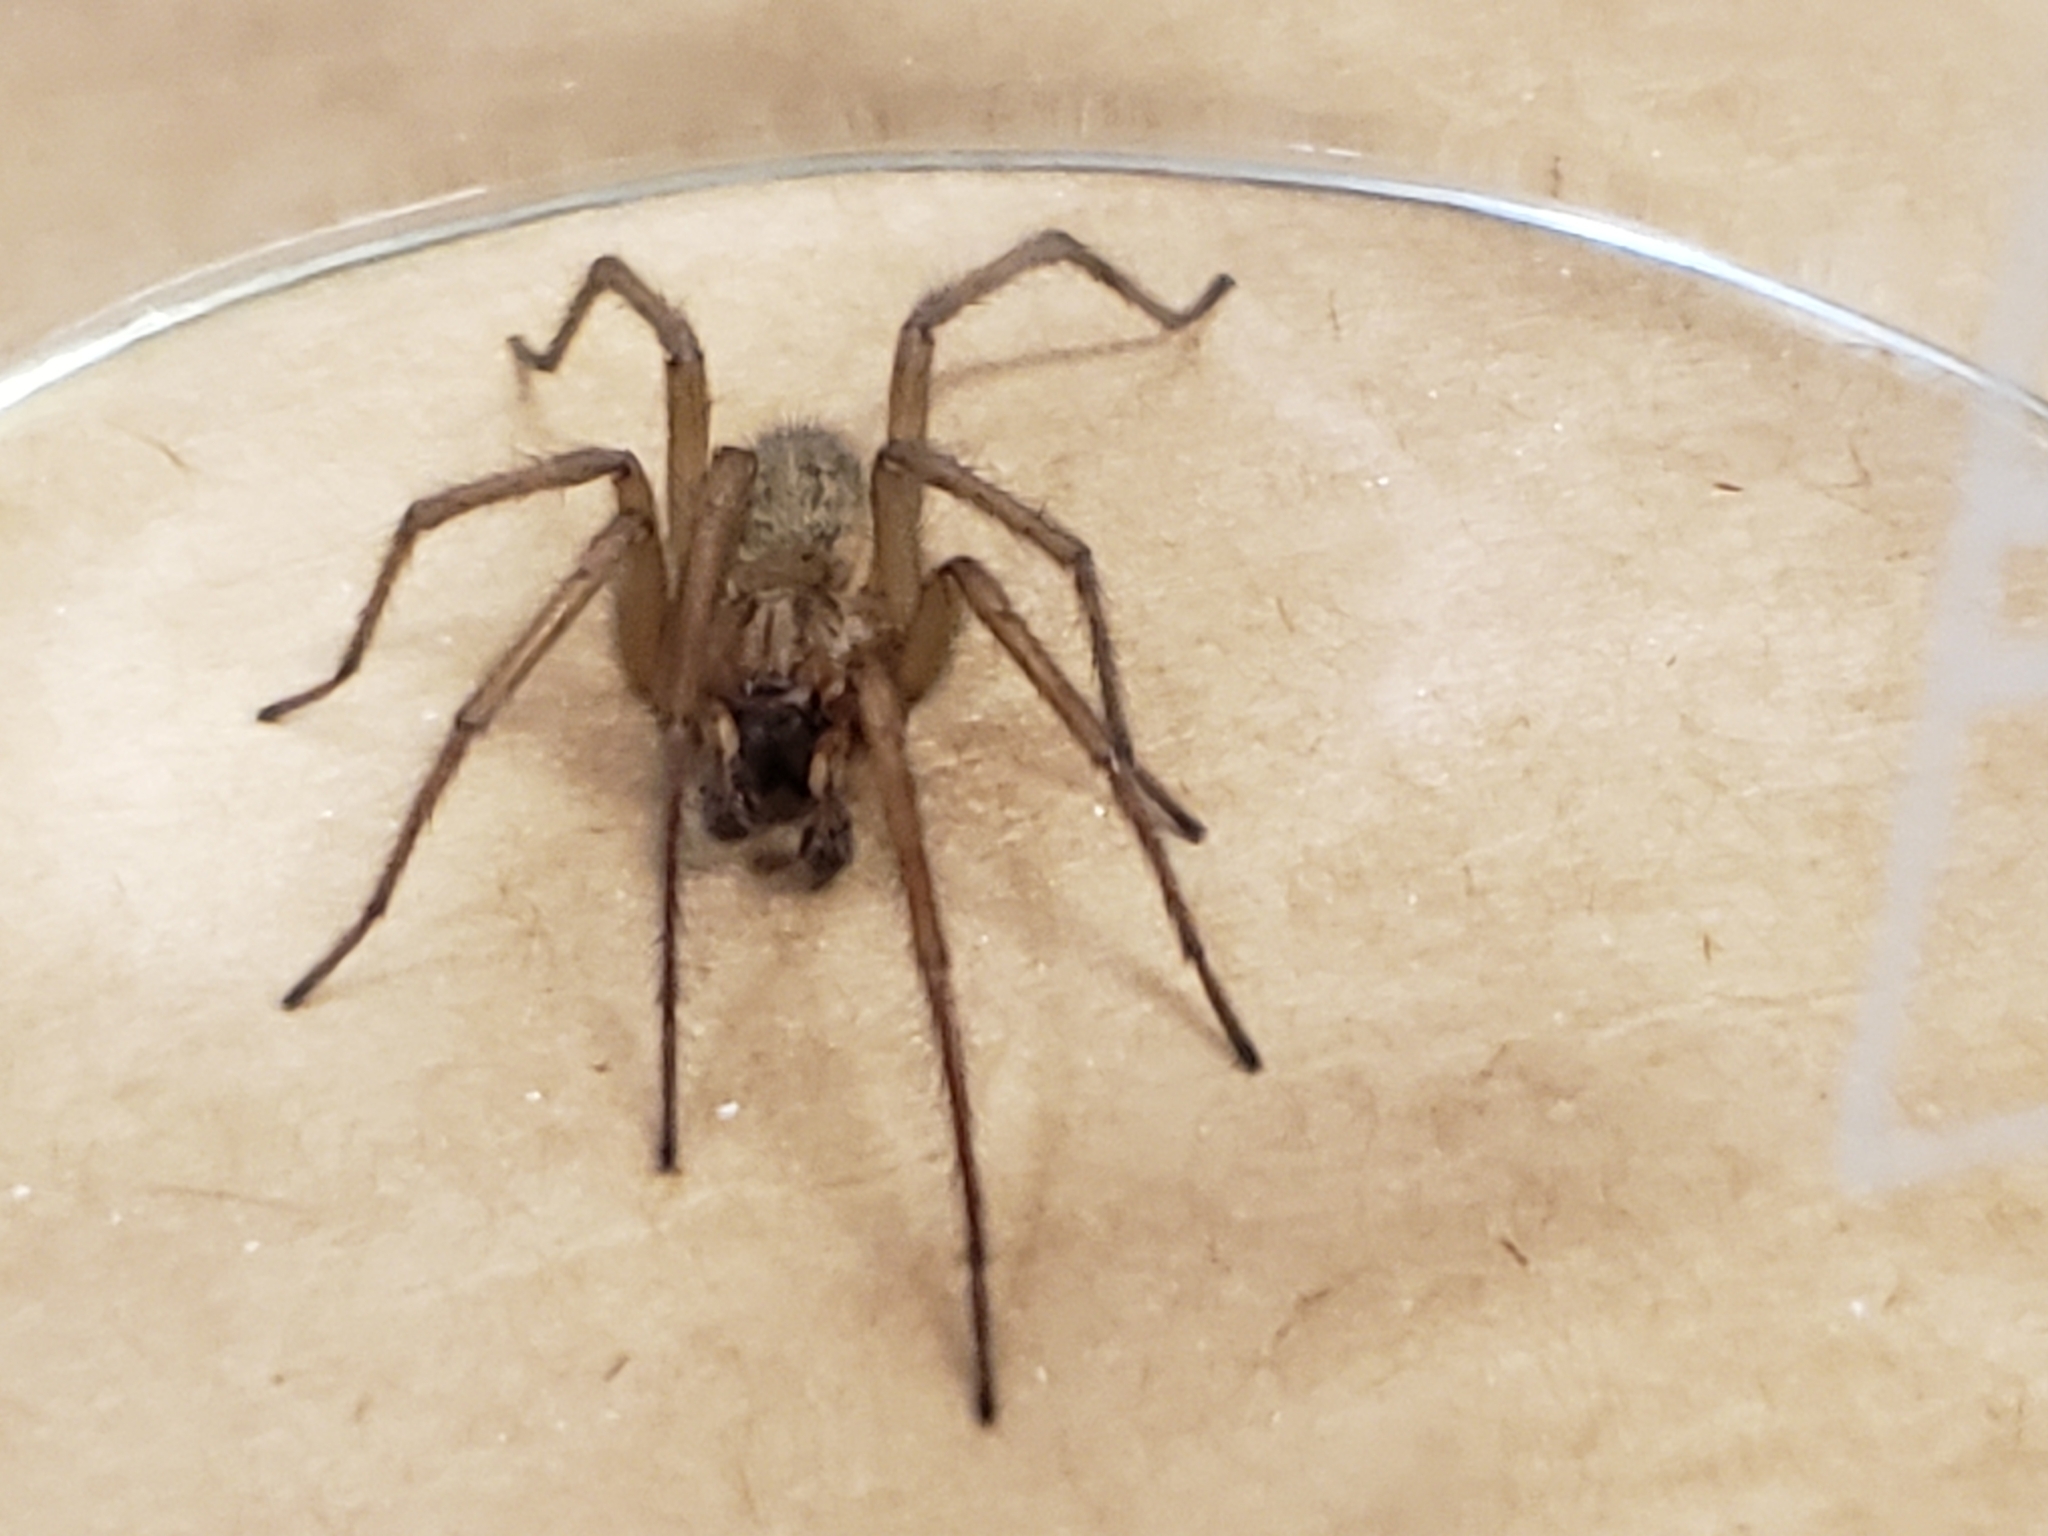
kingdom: Animalia
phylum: Arthropoda
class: Arachnida
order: Araneae
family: Agelenidae
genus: Eratigena
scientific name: Eratigena agrestis
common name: Hobo spider
